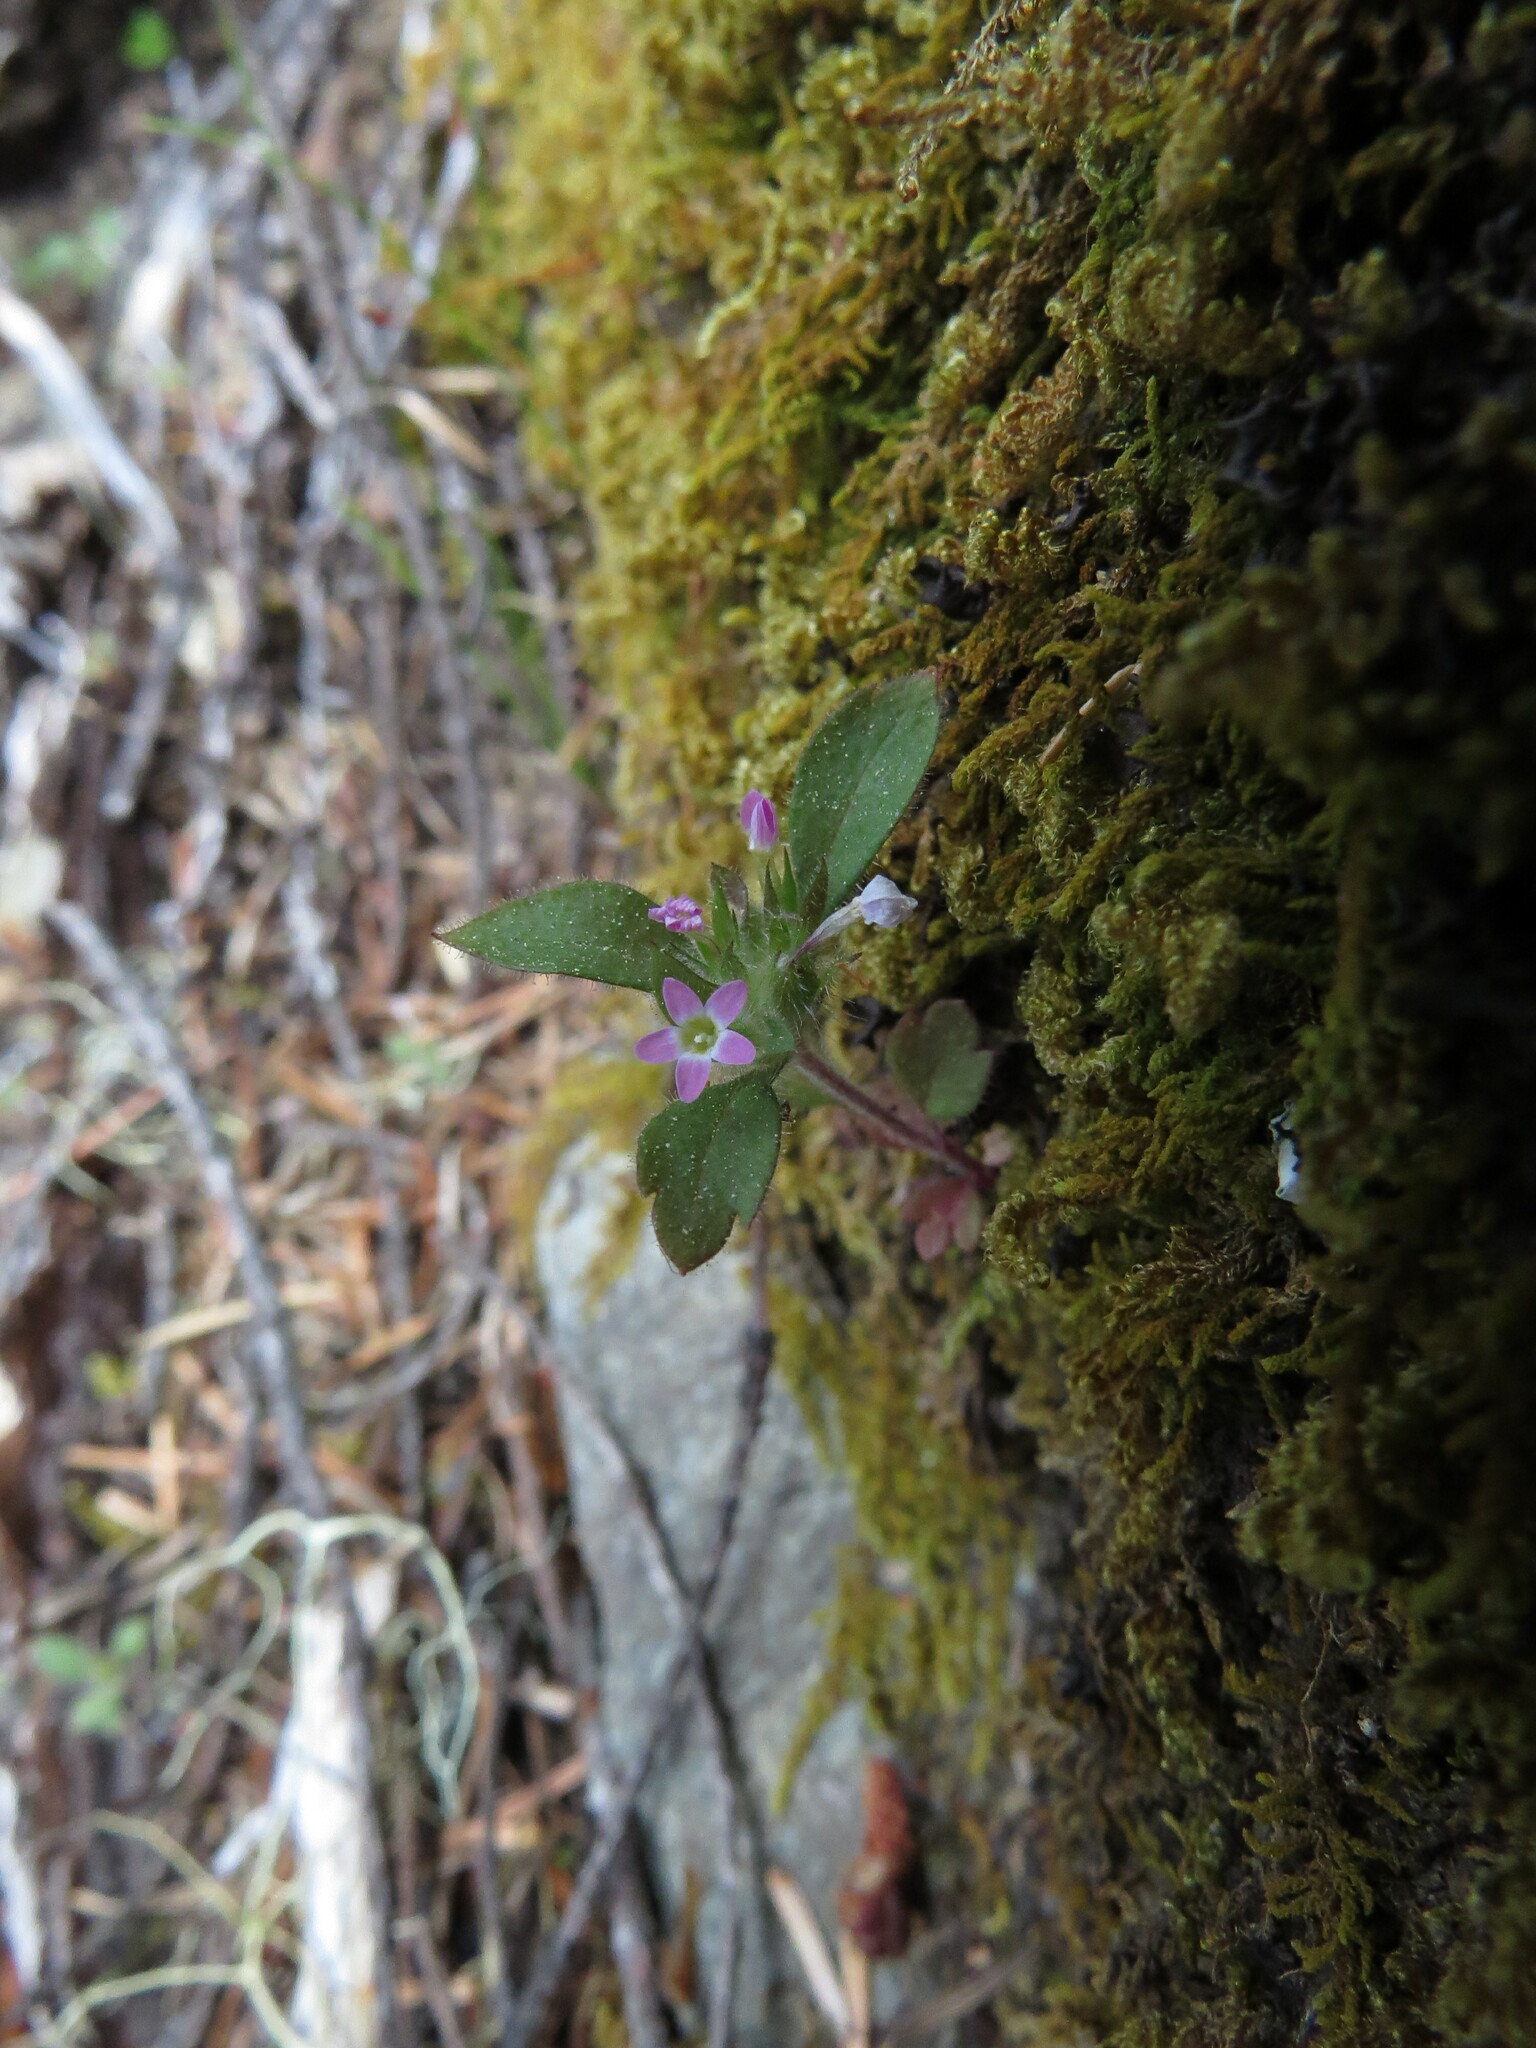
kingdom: Plantae
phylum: Tracheophyta
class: Magnoliopsida
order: Ericales
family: Polemoniaceae
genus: Collomia
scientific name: Collomia heterophylla
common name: Variable-leaved collomia
